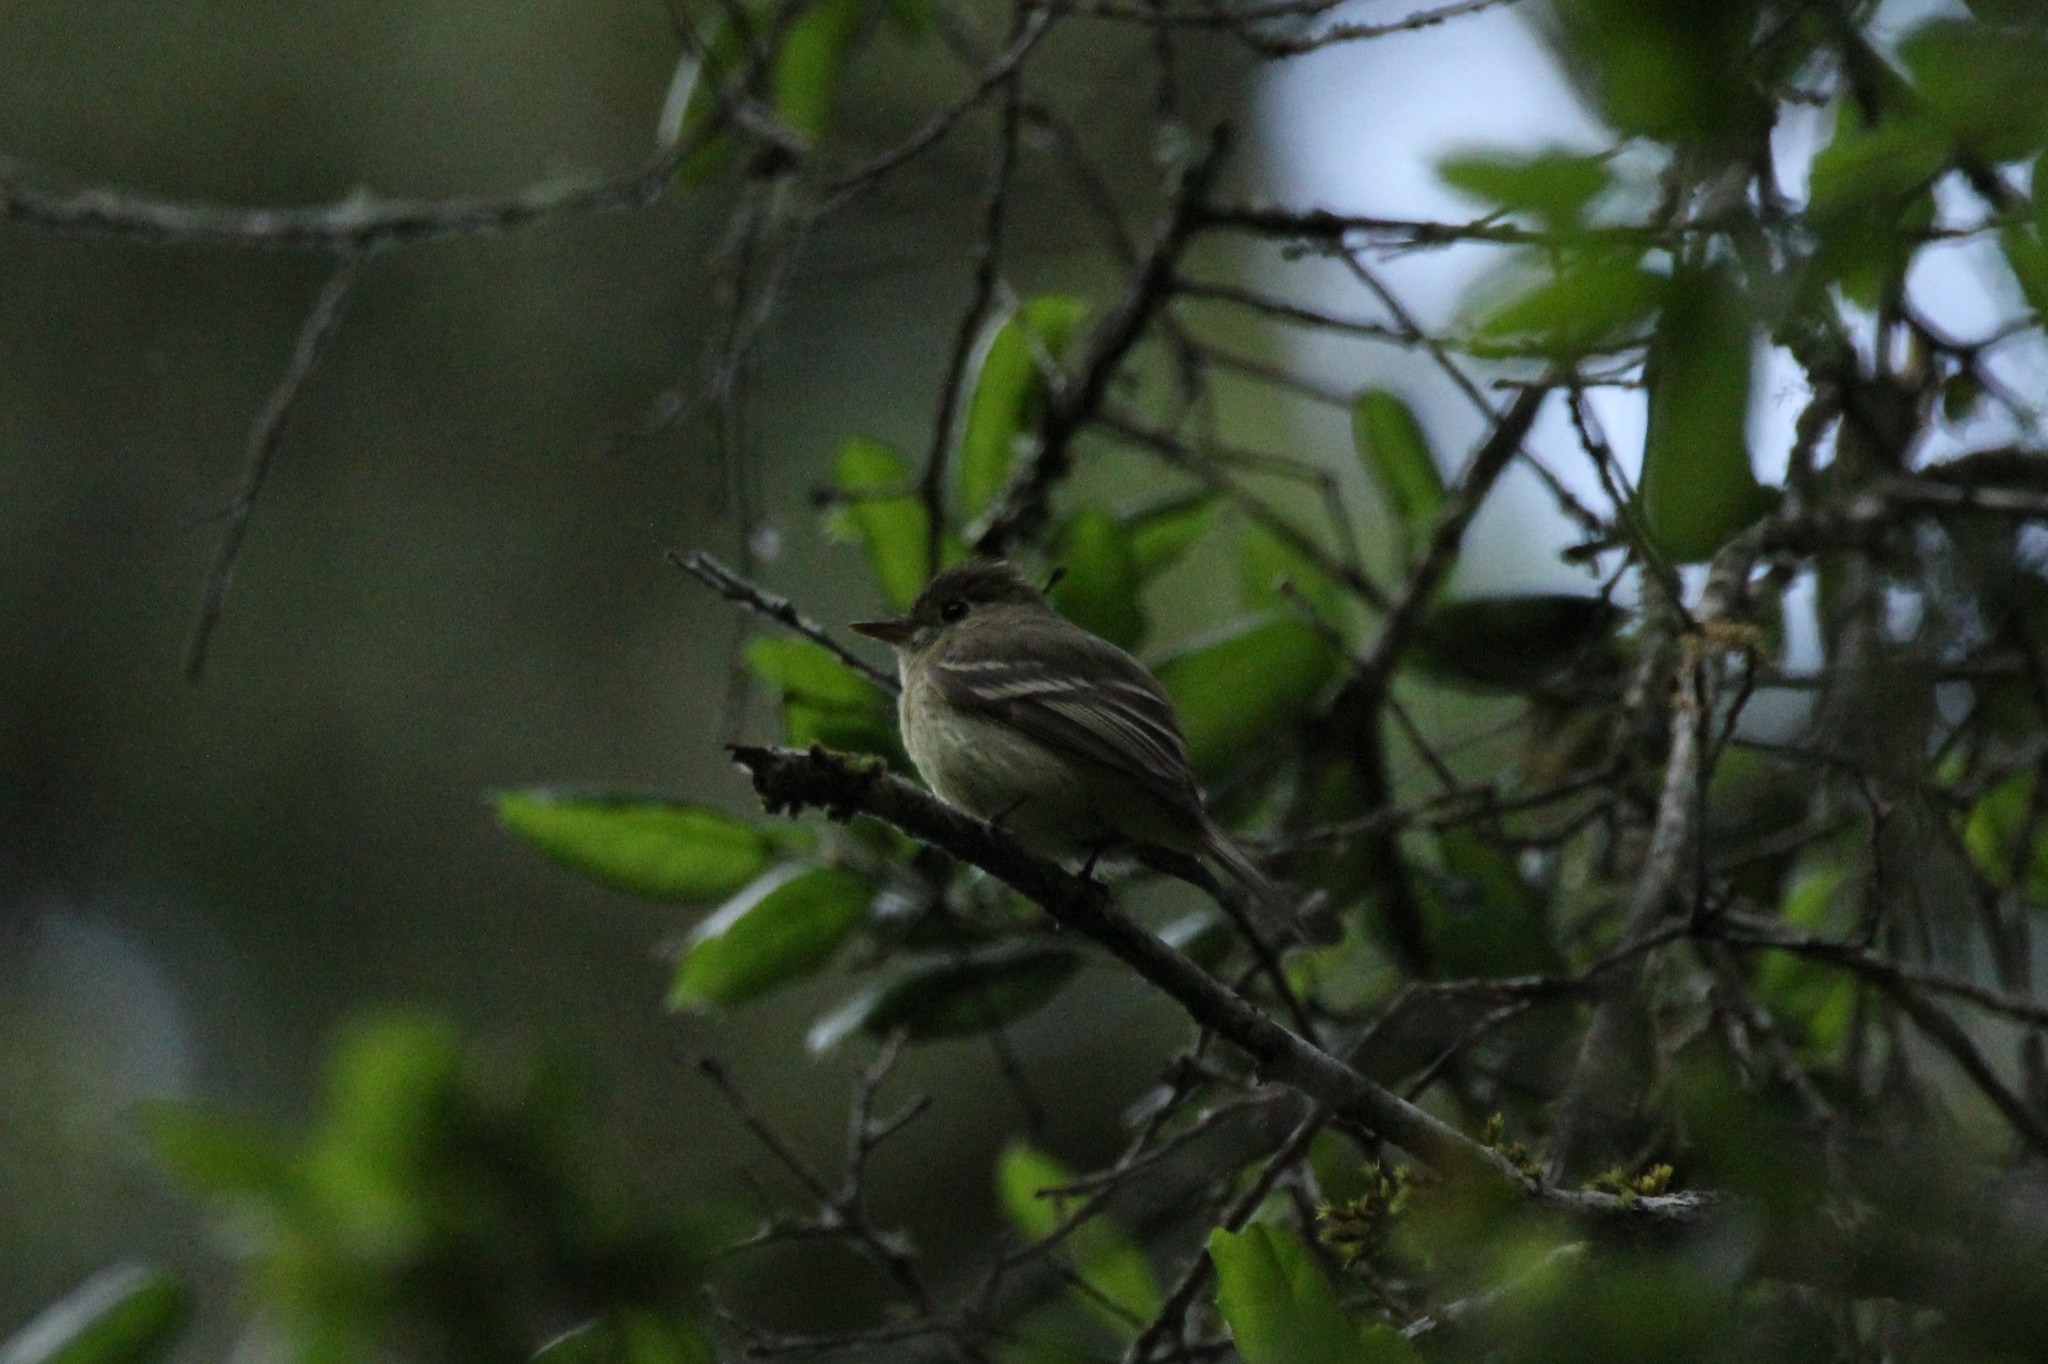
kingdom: Animalia
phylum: Chordata
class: Aves
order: Passeriformes
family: Tyrannidae
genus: Empidonax
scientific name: Empidonax difficilis
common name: Pacific-slope flycatcher
